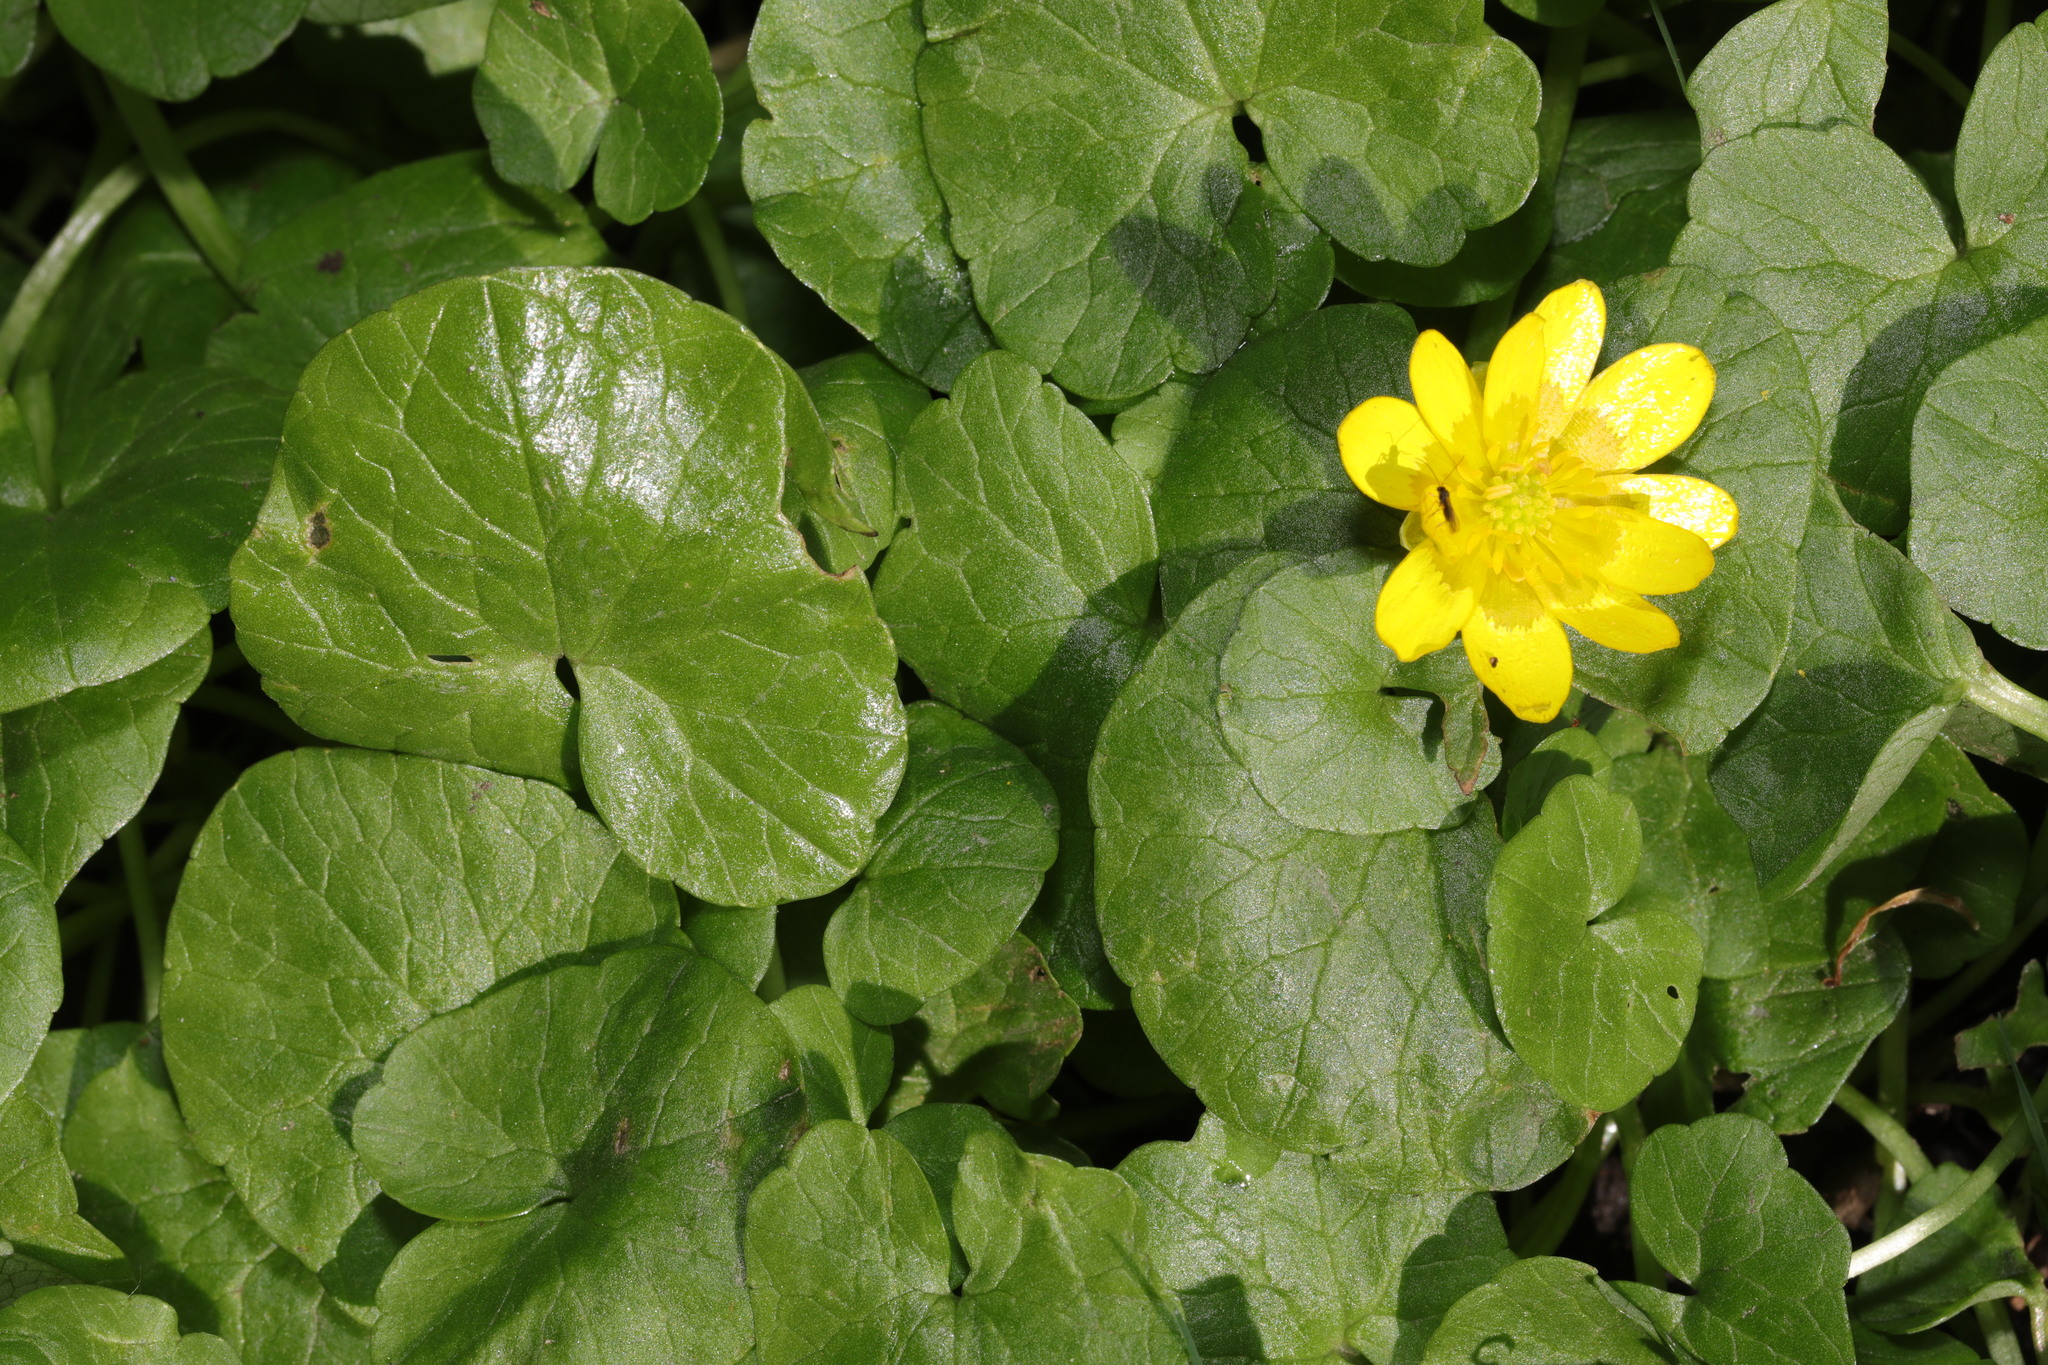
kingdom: Plantae
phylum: Tracheophyta
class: Magnoliopsida
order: Ranunculales
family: Ranunculaceae
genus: Ficaria
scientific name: Ficaria verna
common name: Lesser celandine
